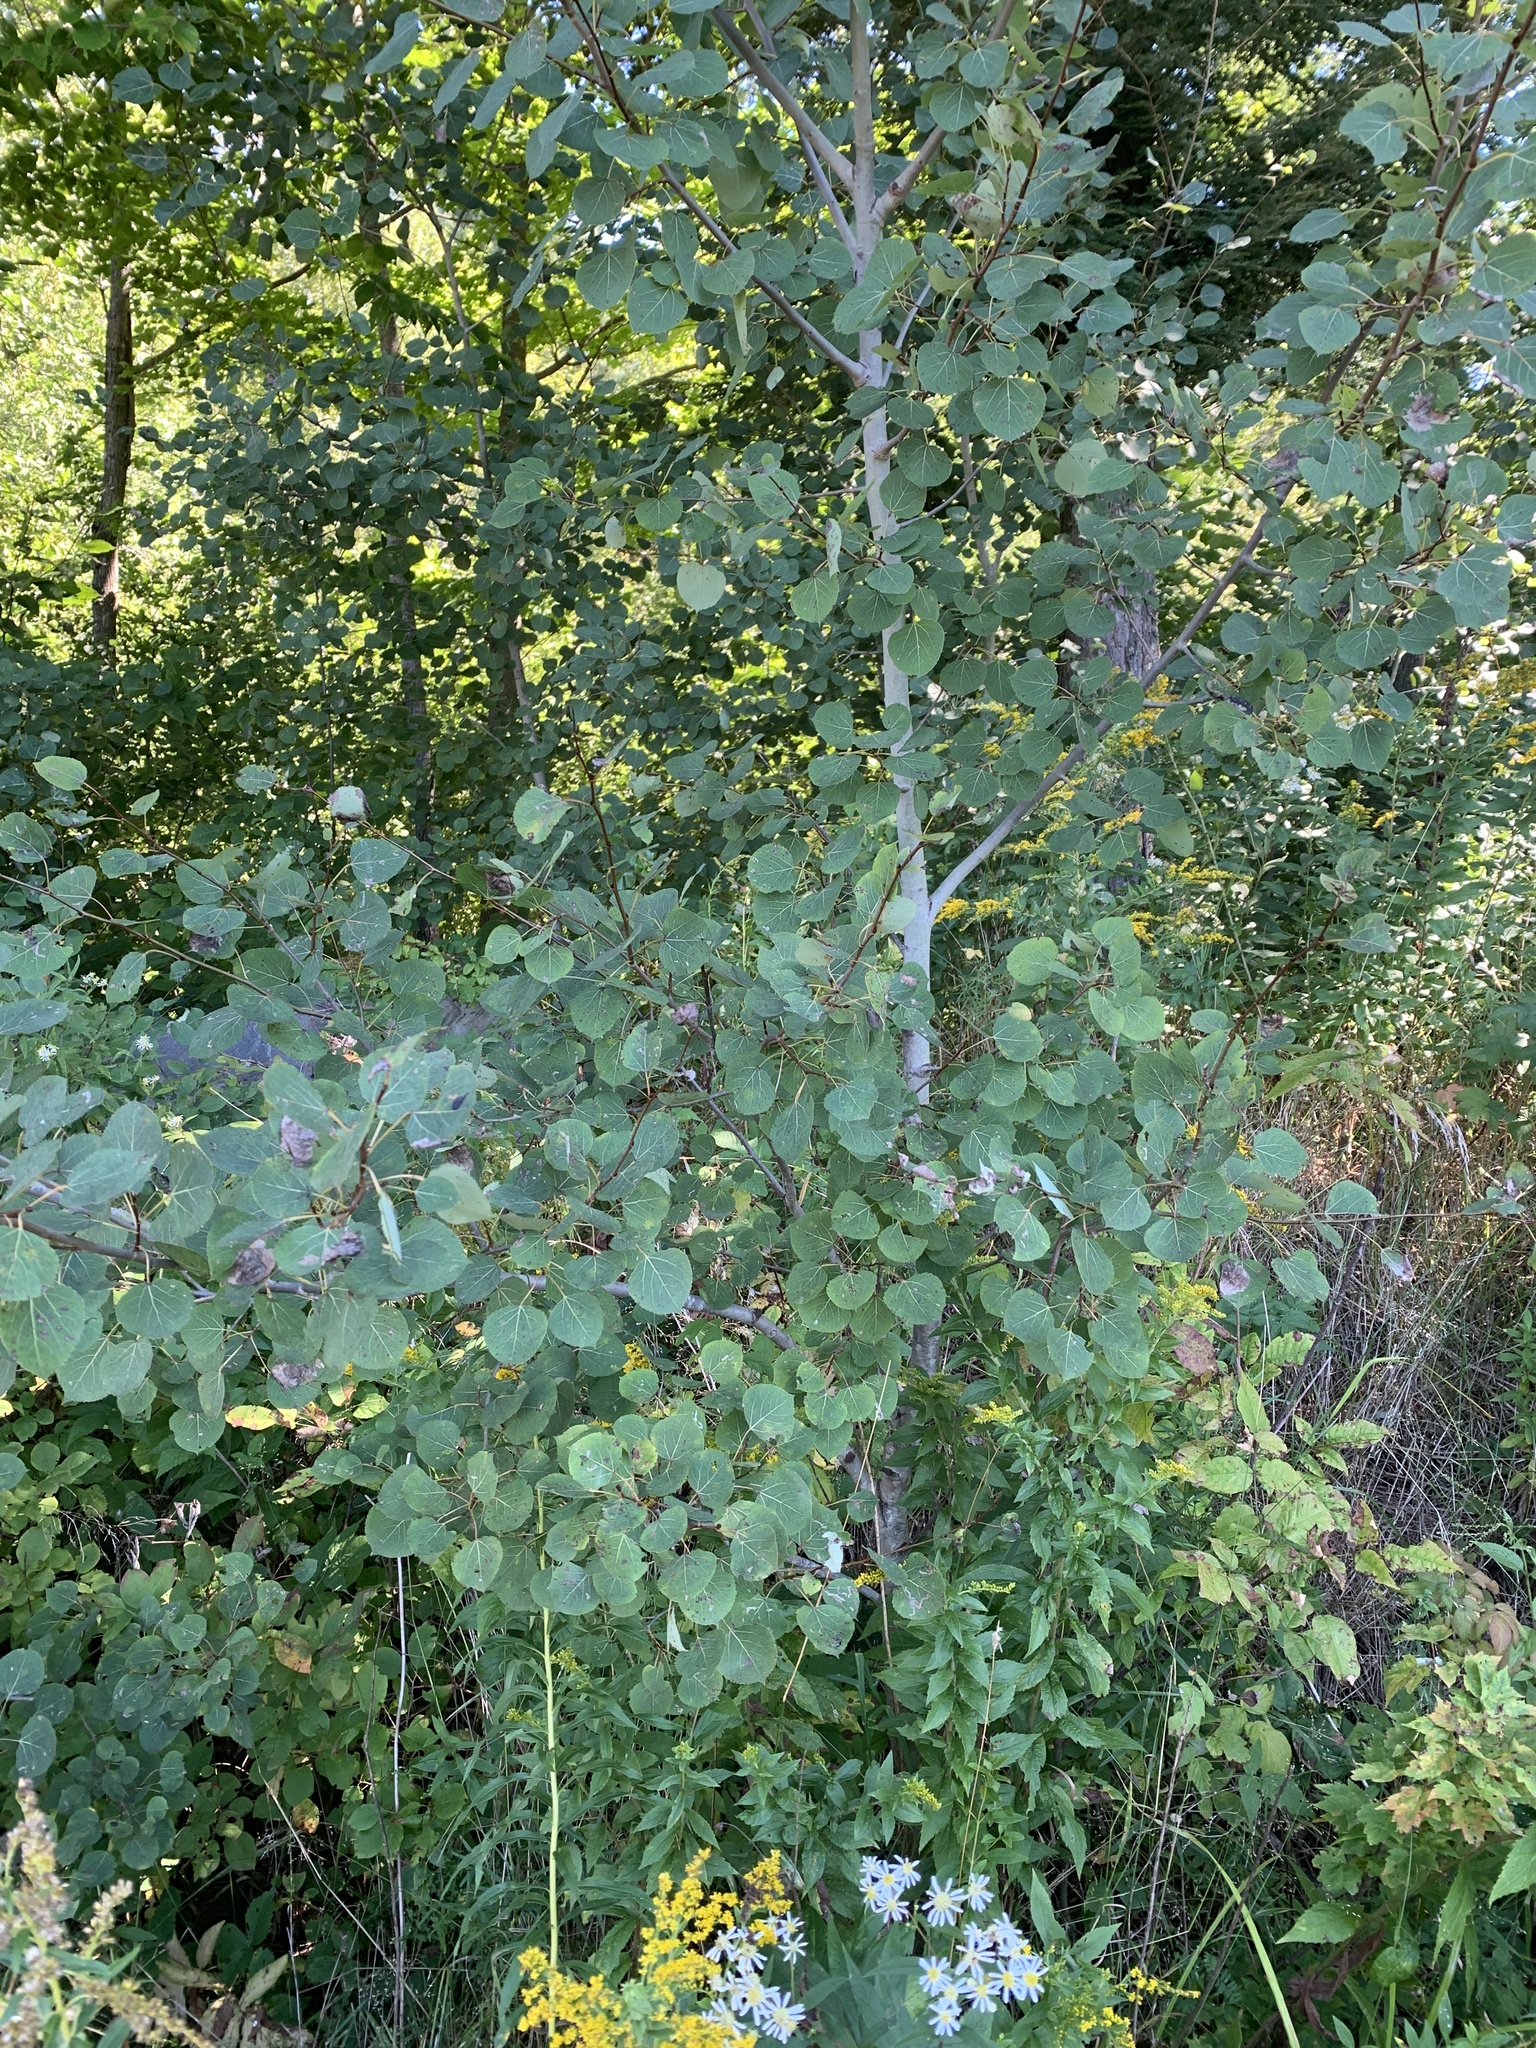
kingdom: Plantae
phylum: Tracheophyta
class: Magnoliopsida
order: Malpighiales
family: Salicaceae
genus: Populus
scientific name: Populus tremuloides
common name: Quaking aspen
